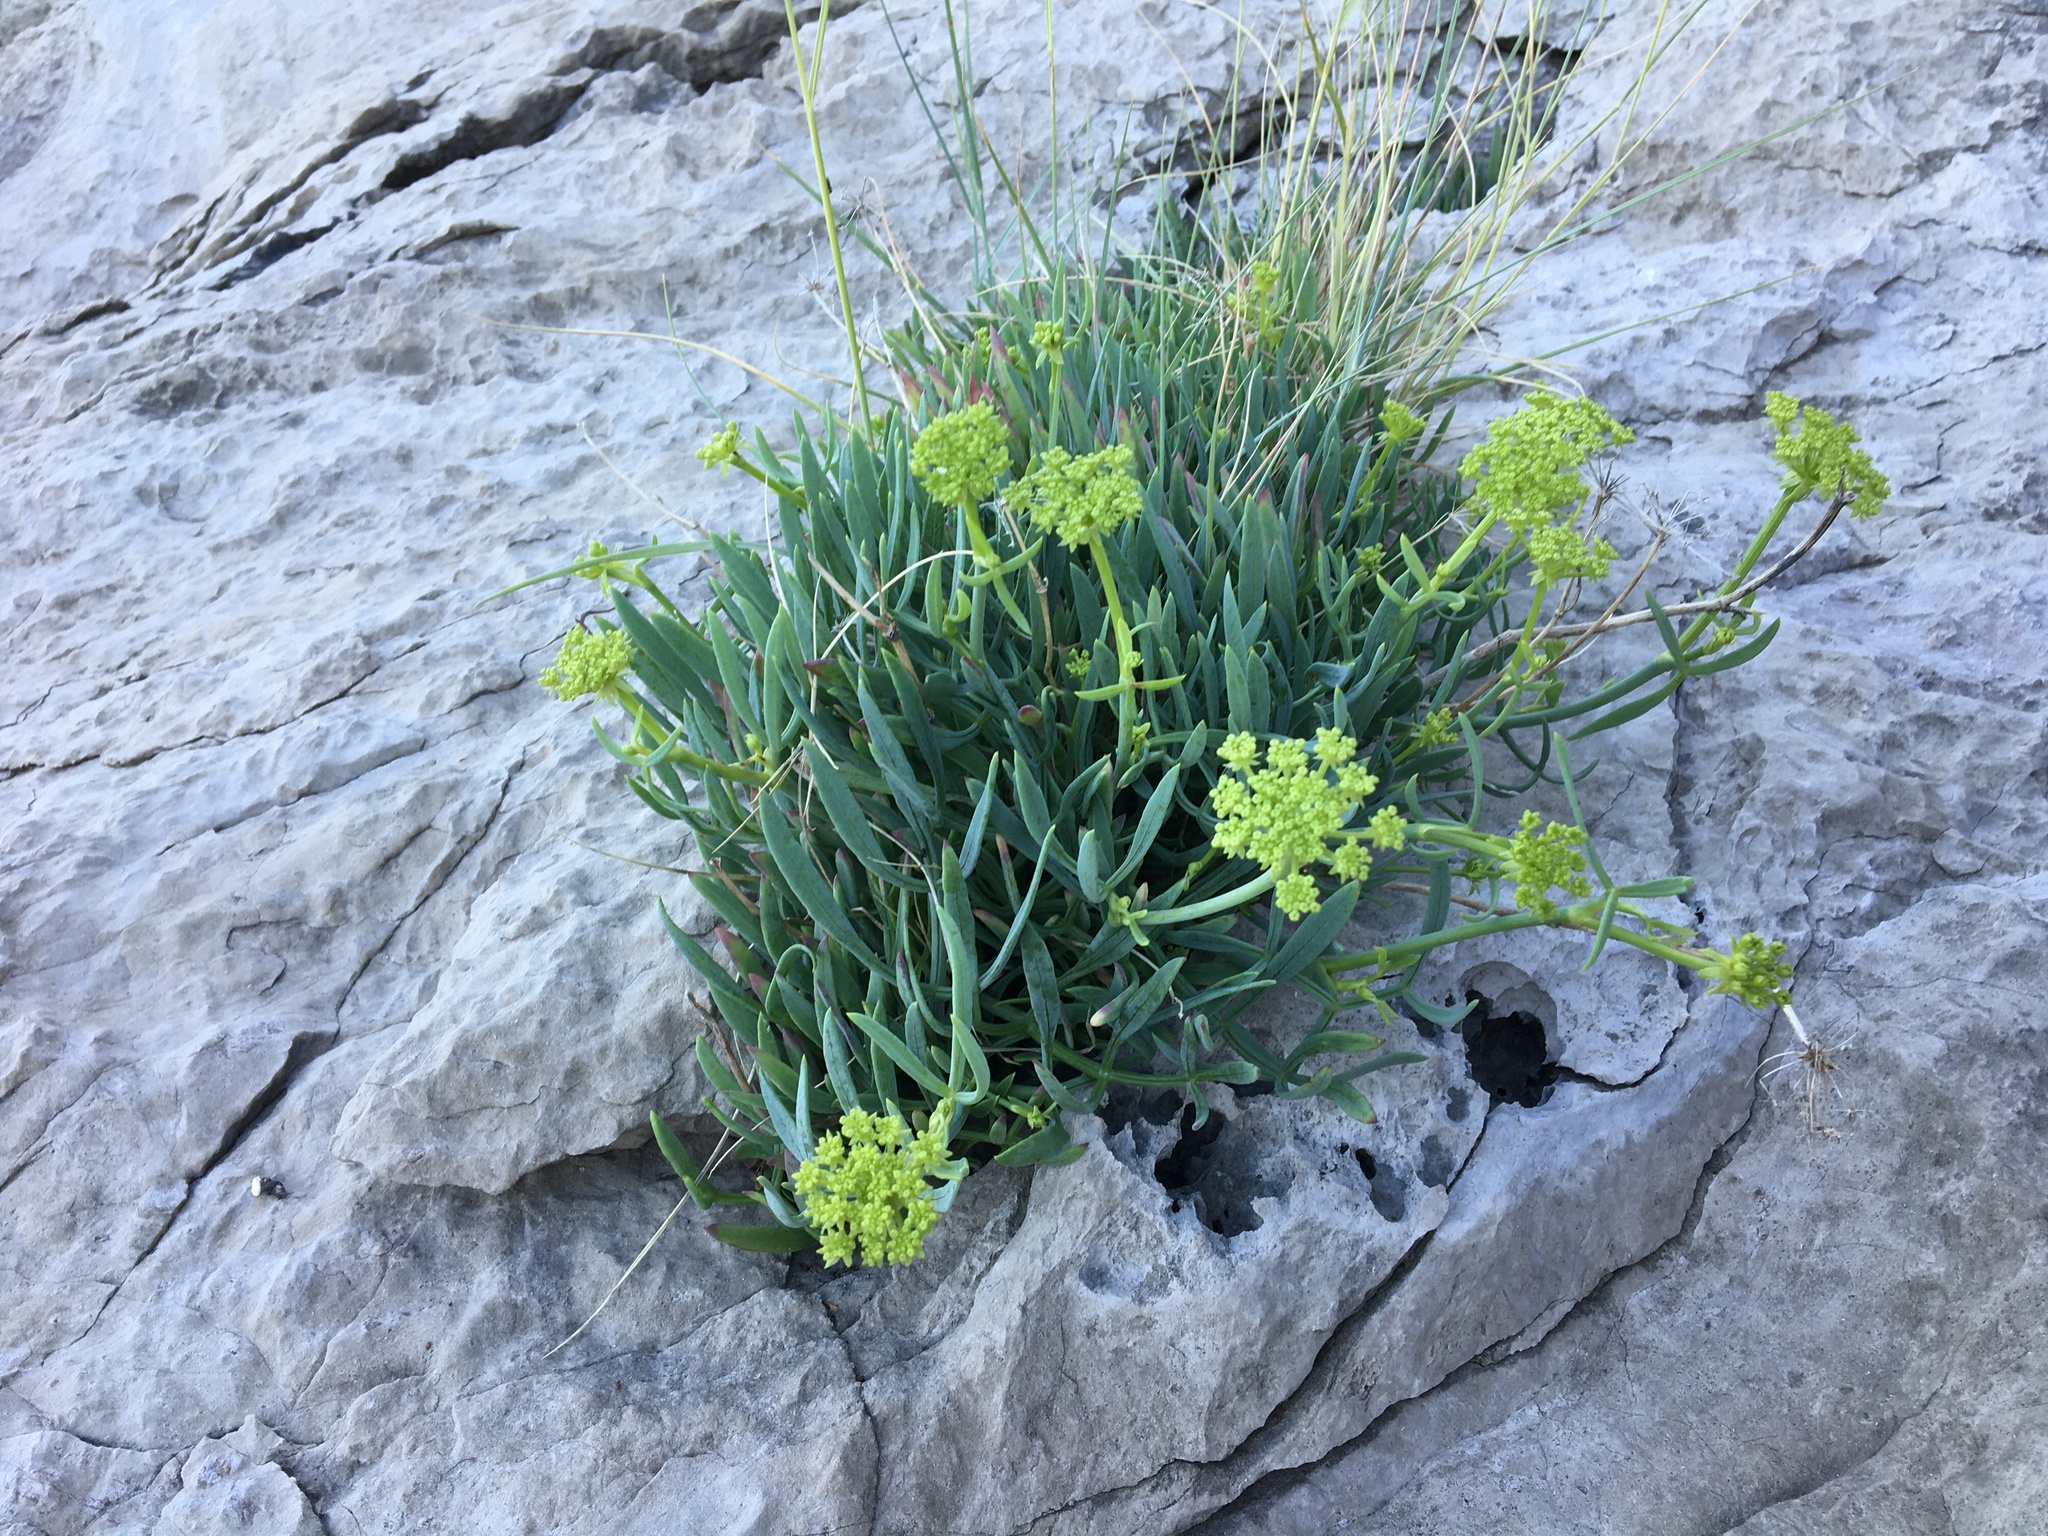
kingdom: Plantae
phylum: Tracheophyta
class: Magnoliopsida
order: Apiales
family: Apiaceae
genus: Crithmum
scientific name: Crithmum maritimum
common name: Rock samphire
